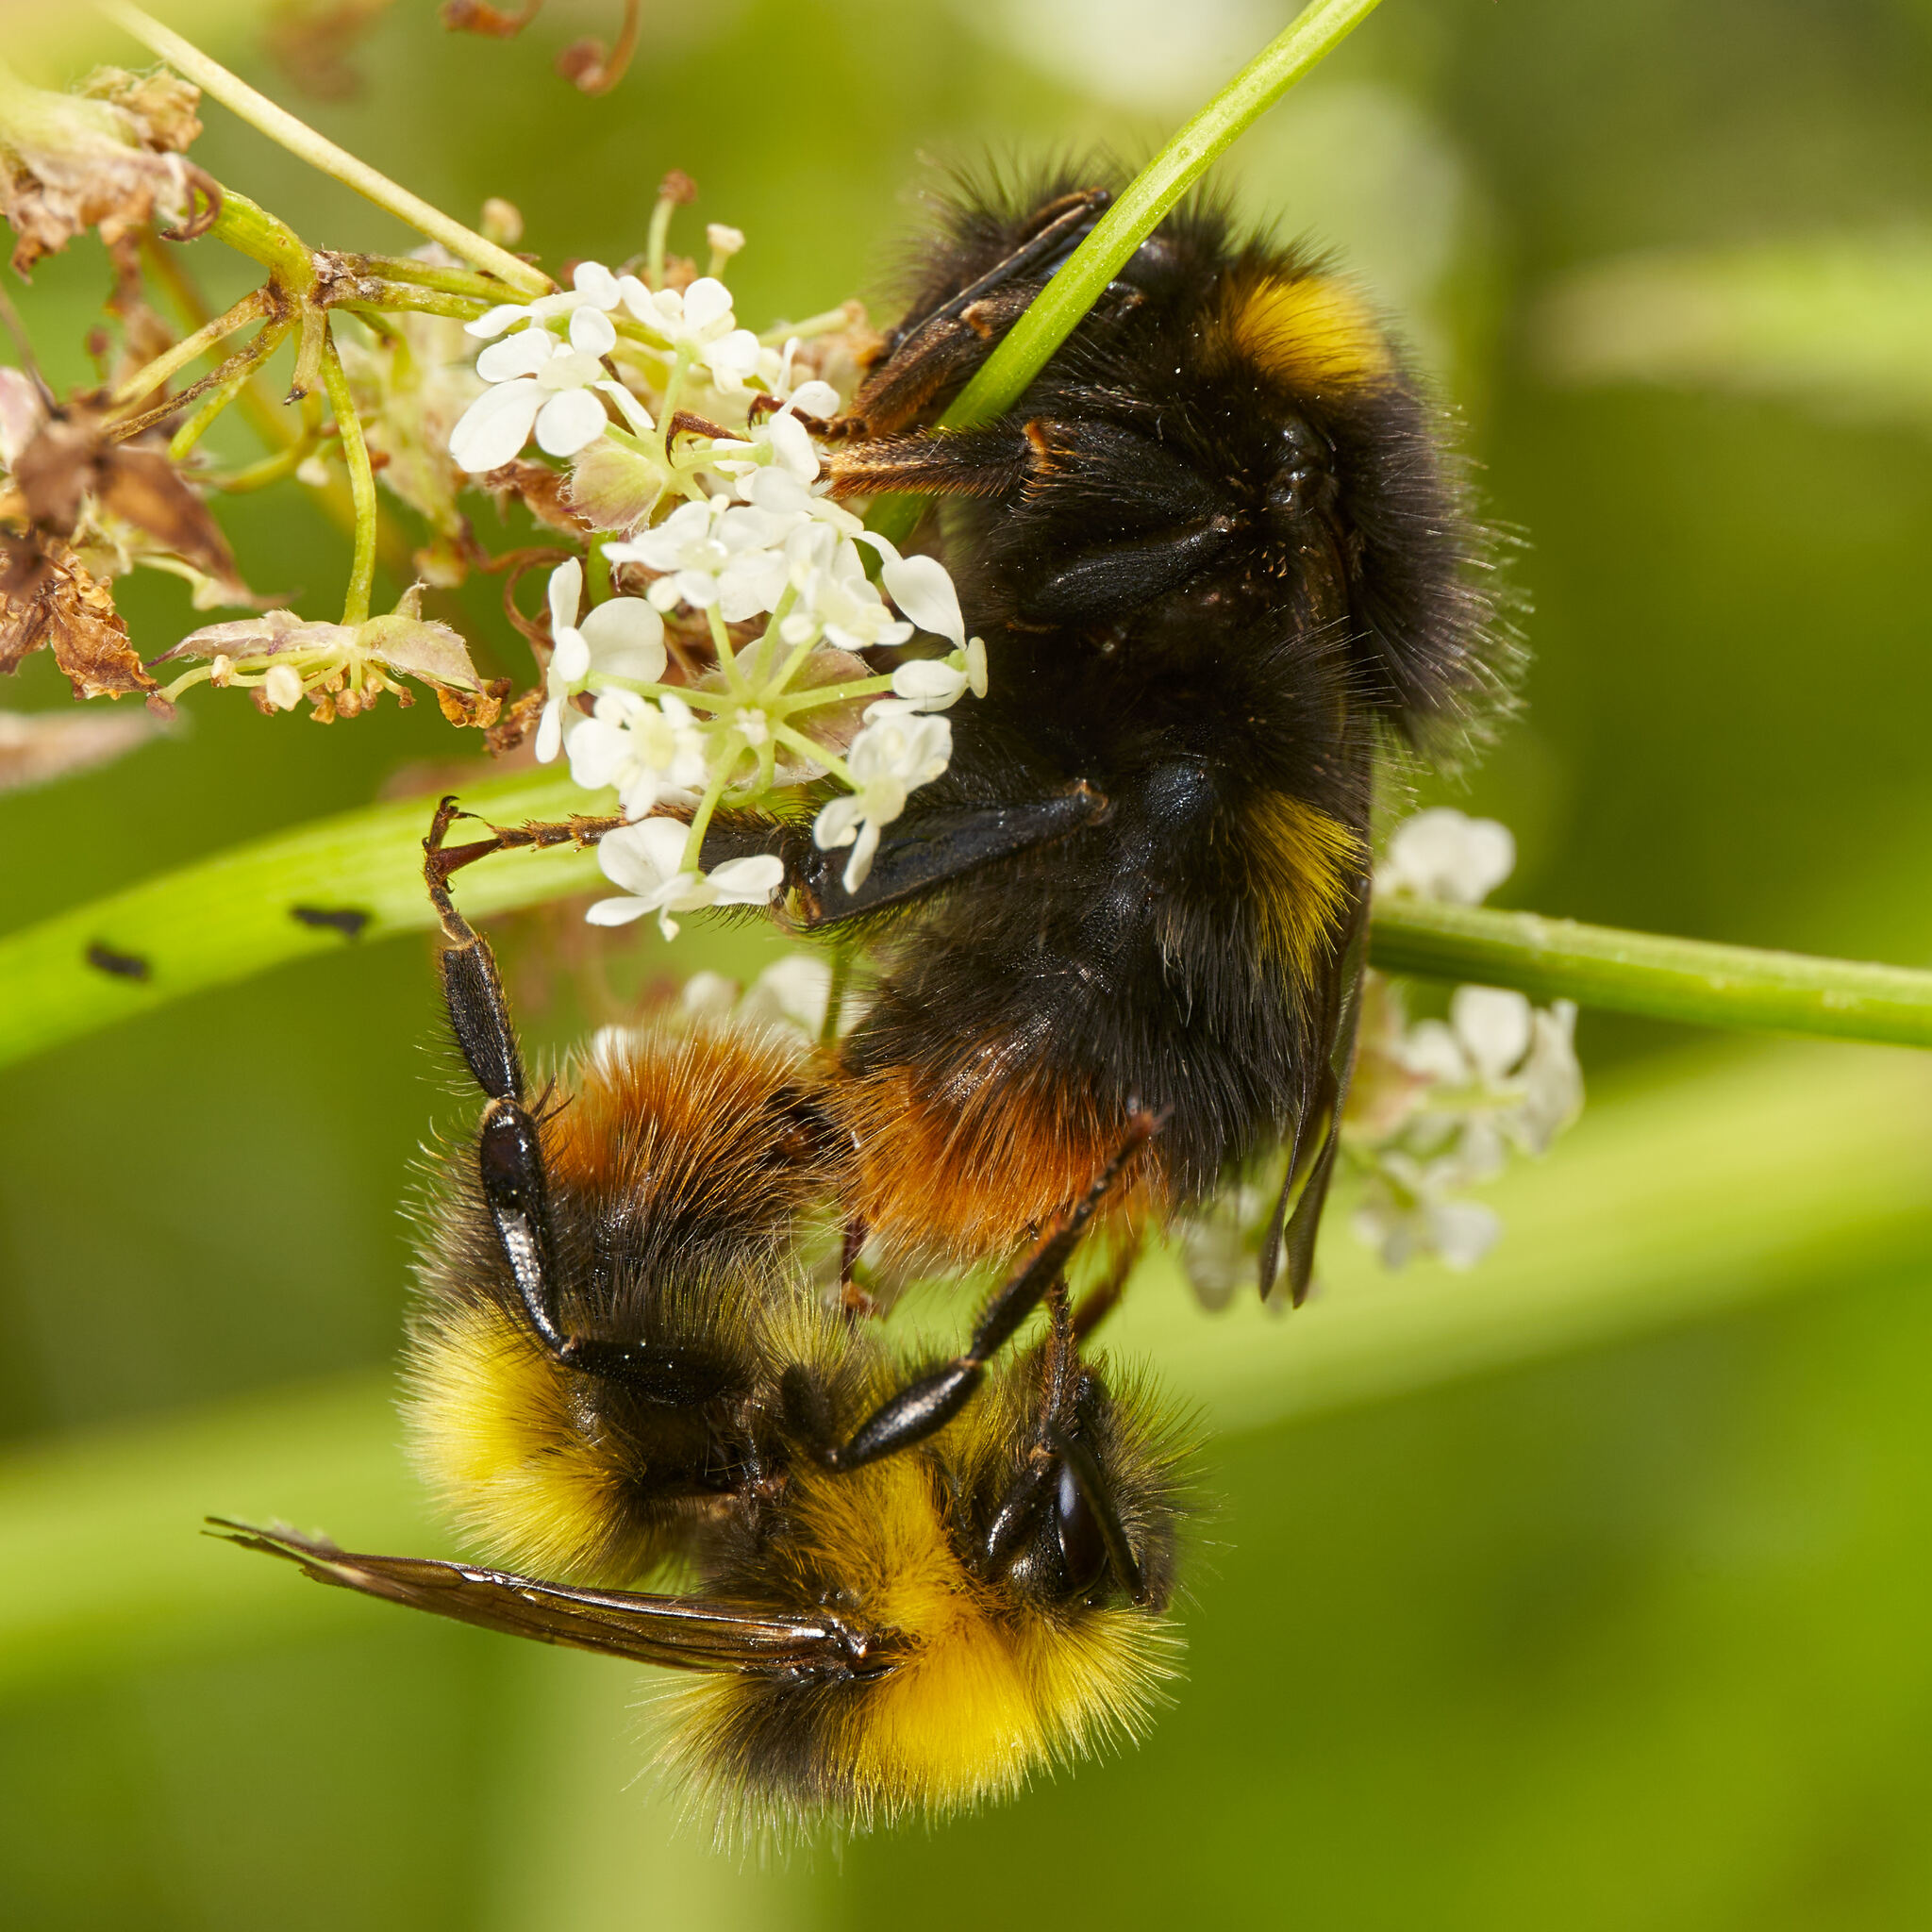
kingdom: Animalia
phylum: Arthropoda
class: Insecta
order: Hymenoptera
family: Apidae
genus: Bombus
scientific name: Bombus pratorum
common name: Early humble-bee
